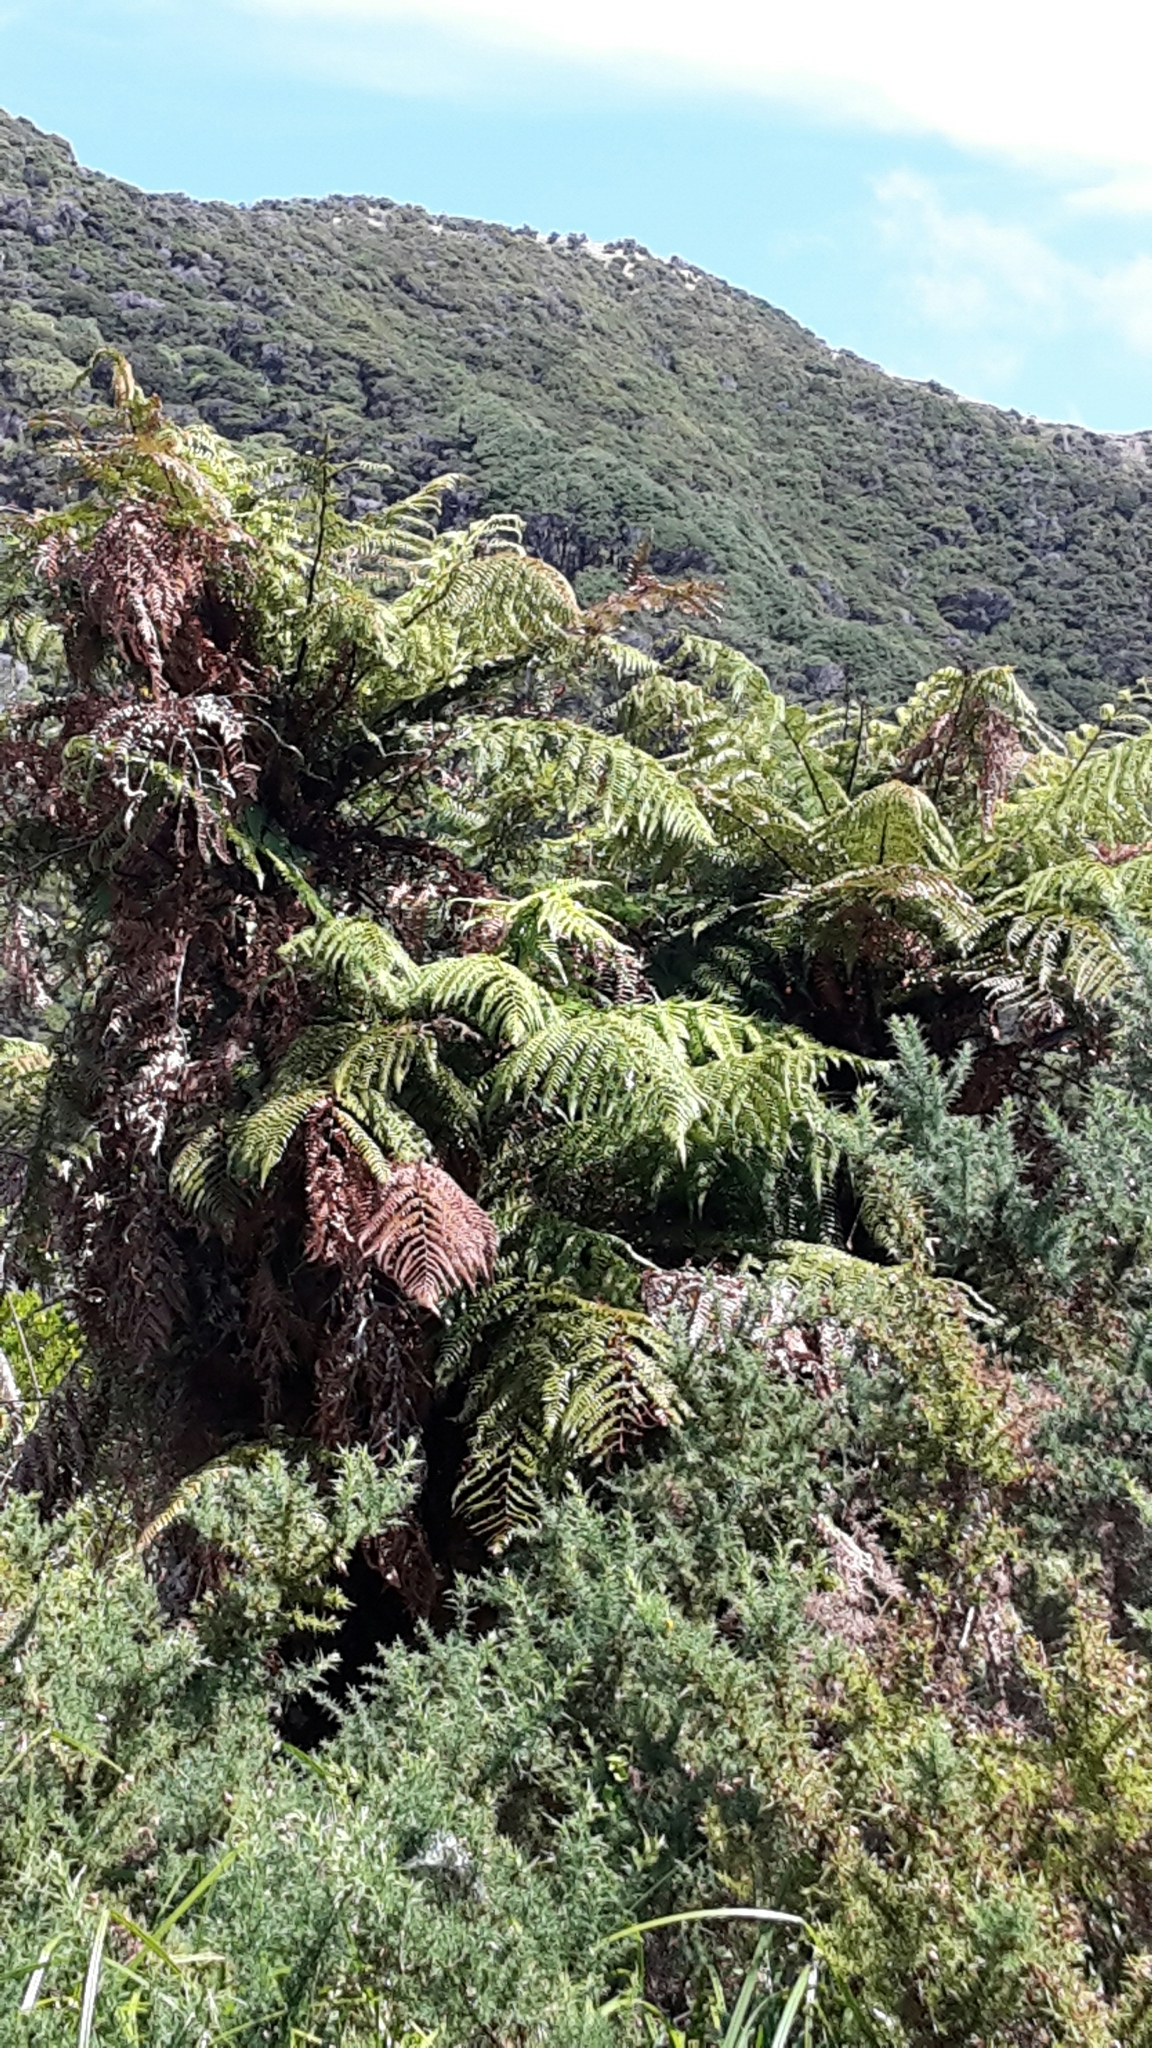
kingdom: Plantae
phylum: Tracheophyta
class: Polypodiopsida
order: Cyatheales
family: Dicksoniaceae
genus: Dicksonia
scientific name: Dicksonia squarrosa
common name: Hard treefern
